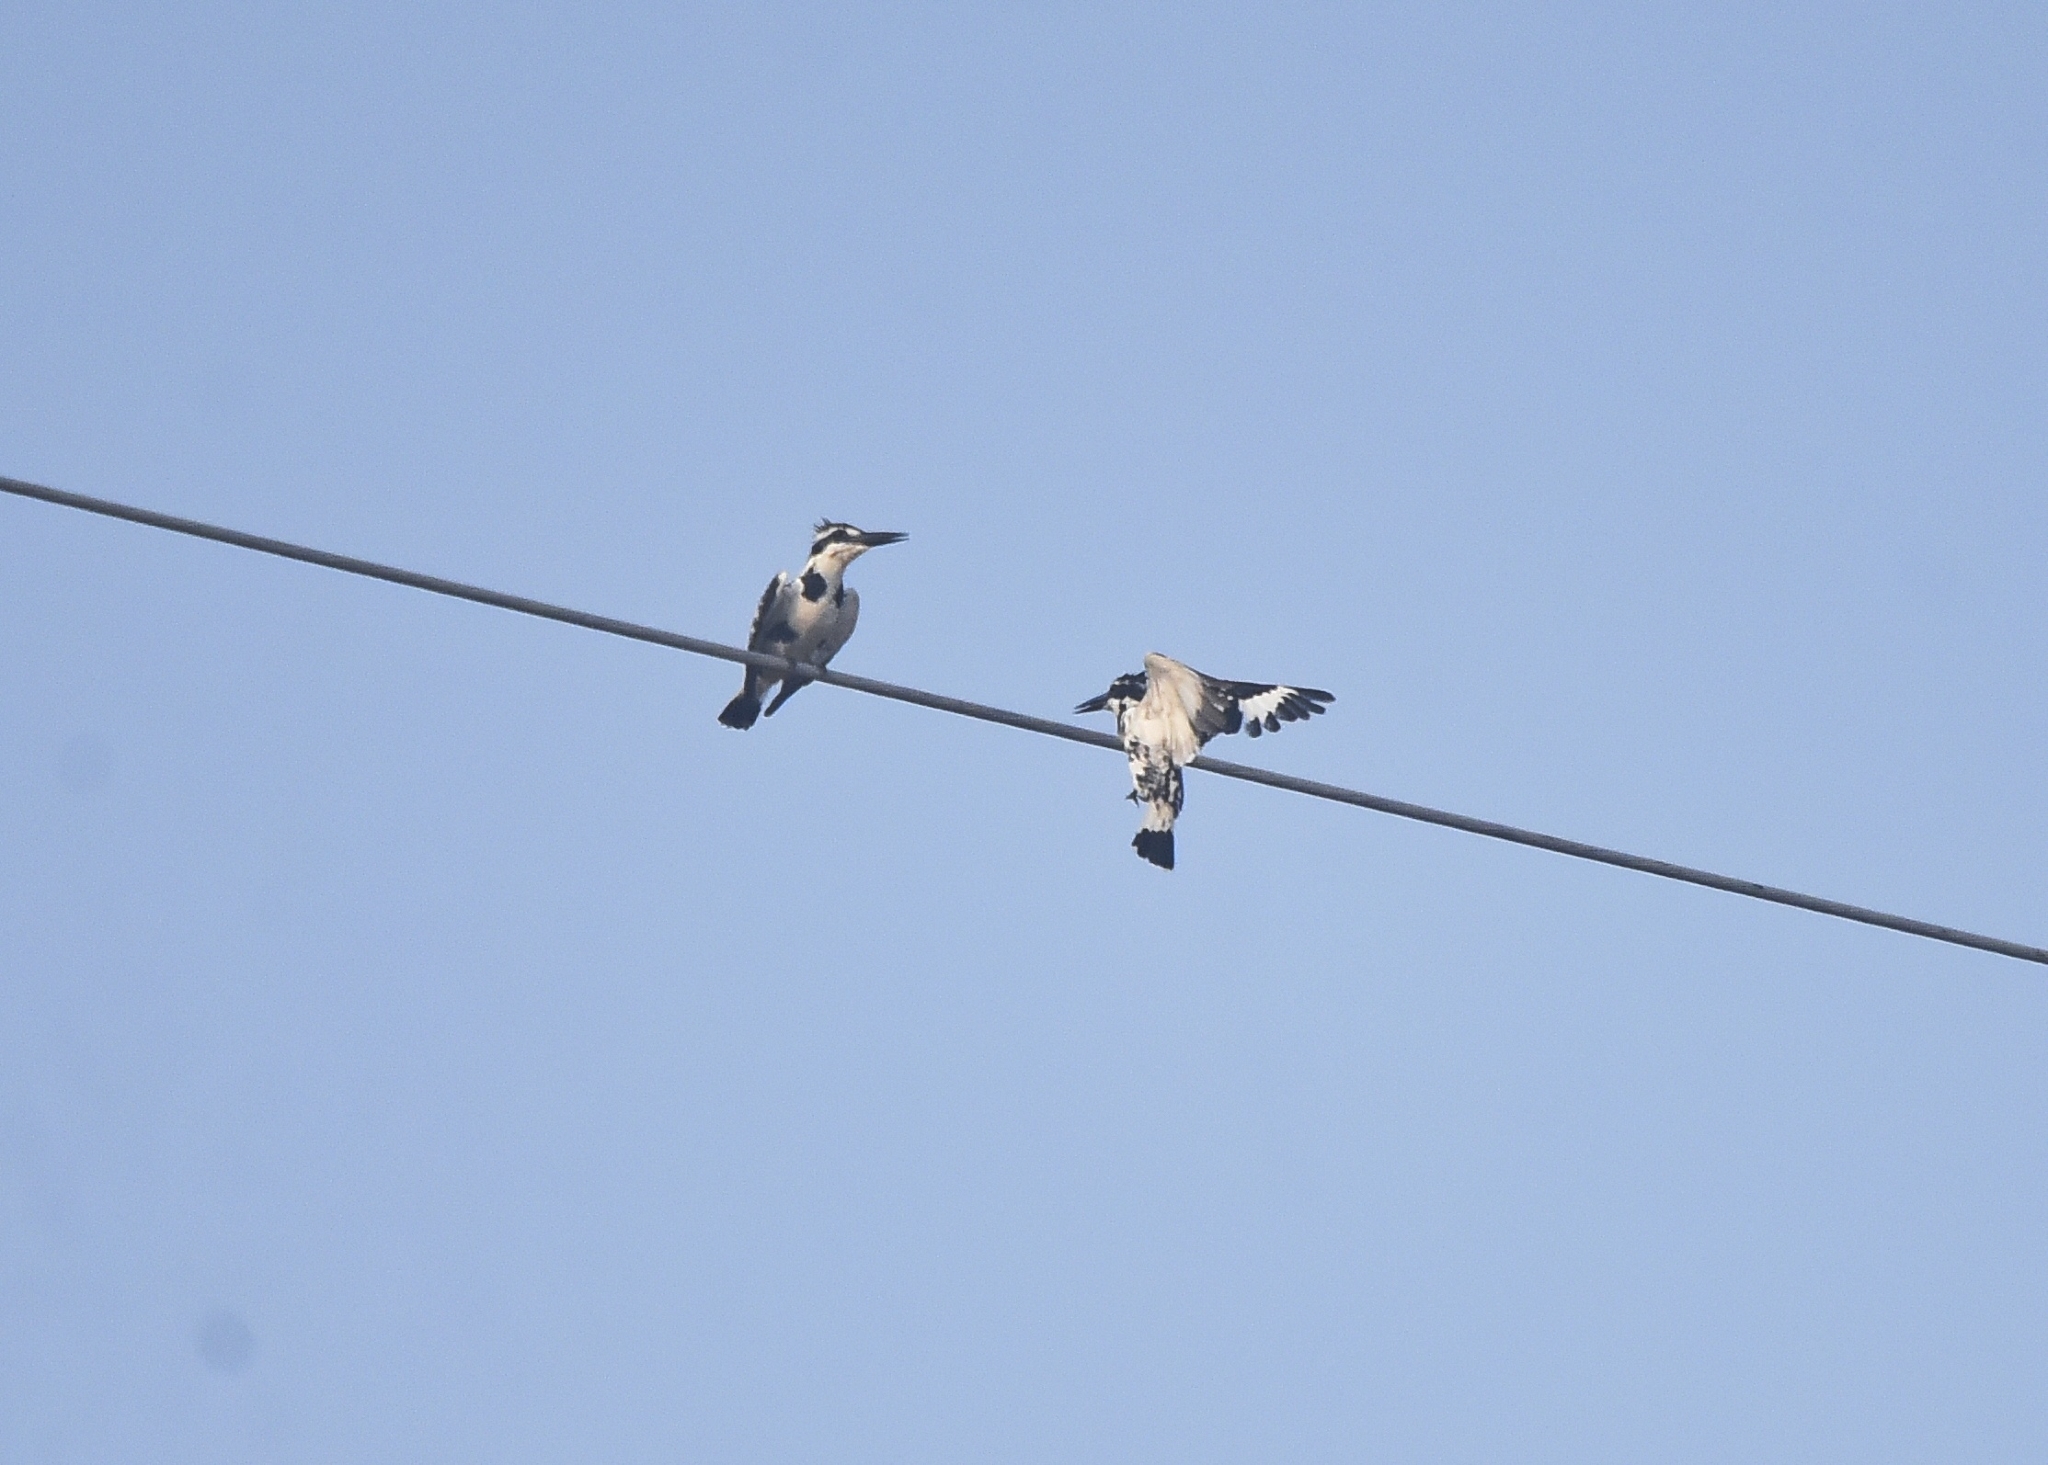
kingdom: Animalia
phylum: Chordata
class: Aves
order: Coraciiformes
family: Alcedinidae
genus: Ceryle
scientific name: Ceryle rudis
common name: Pied kingfisher
